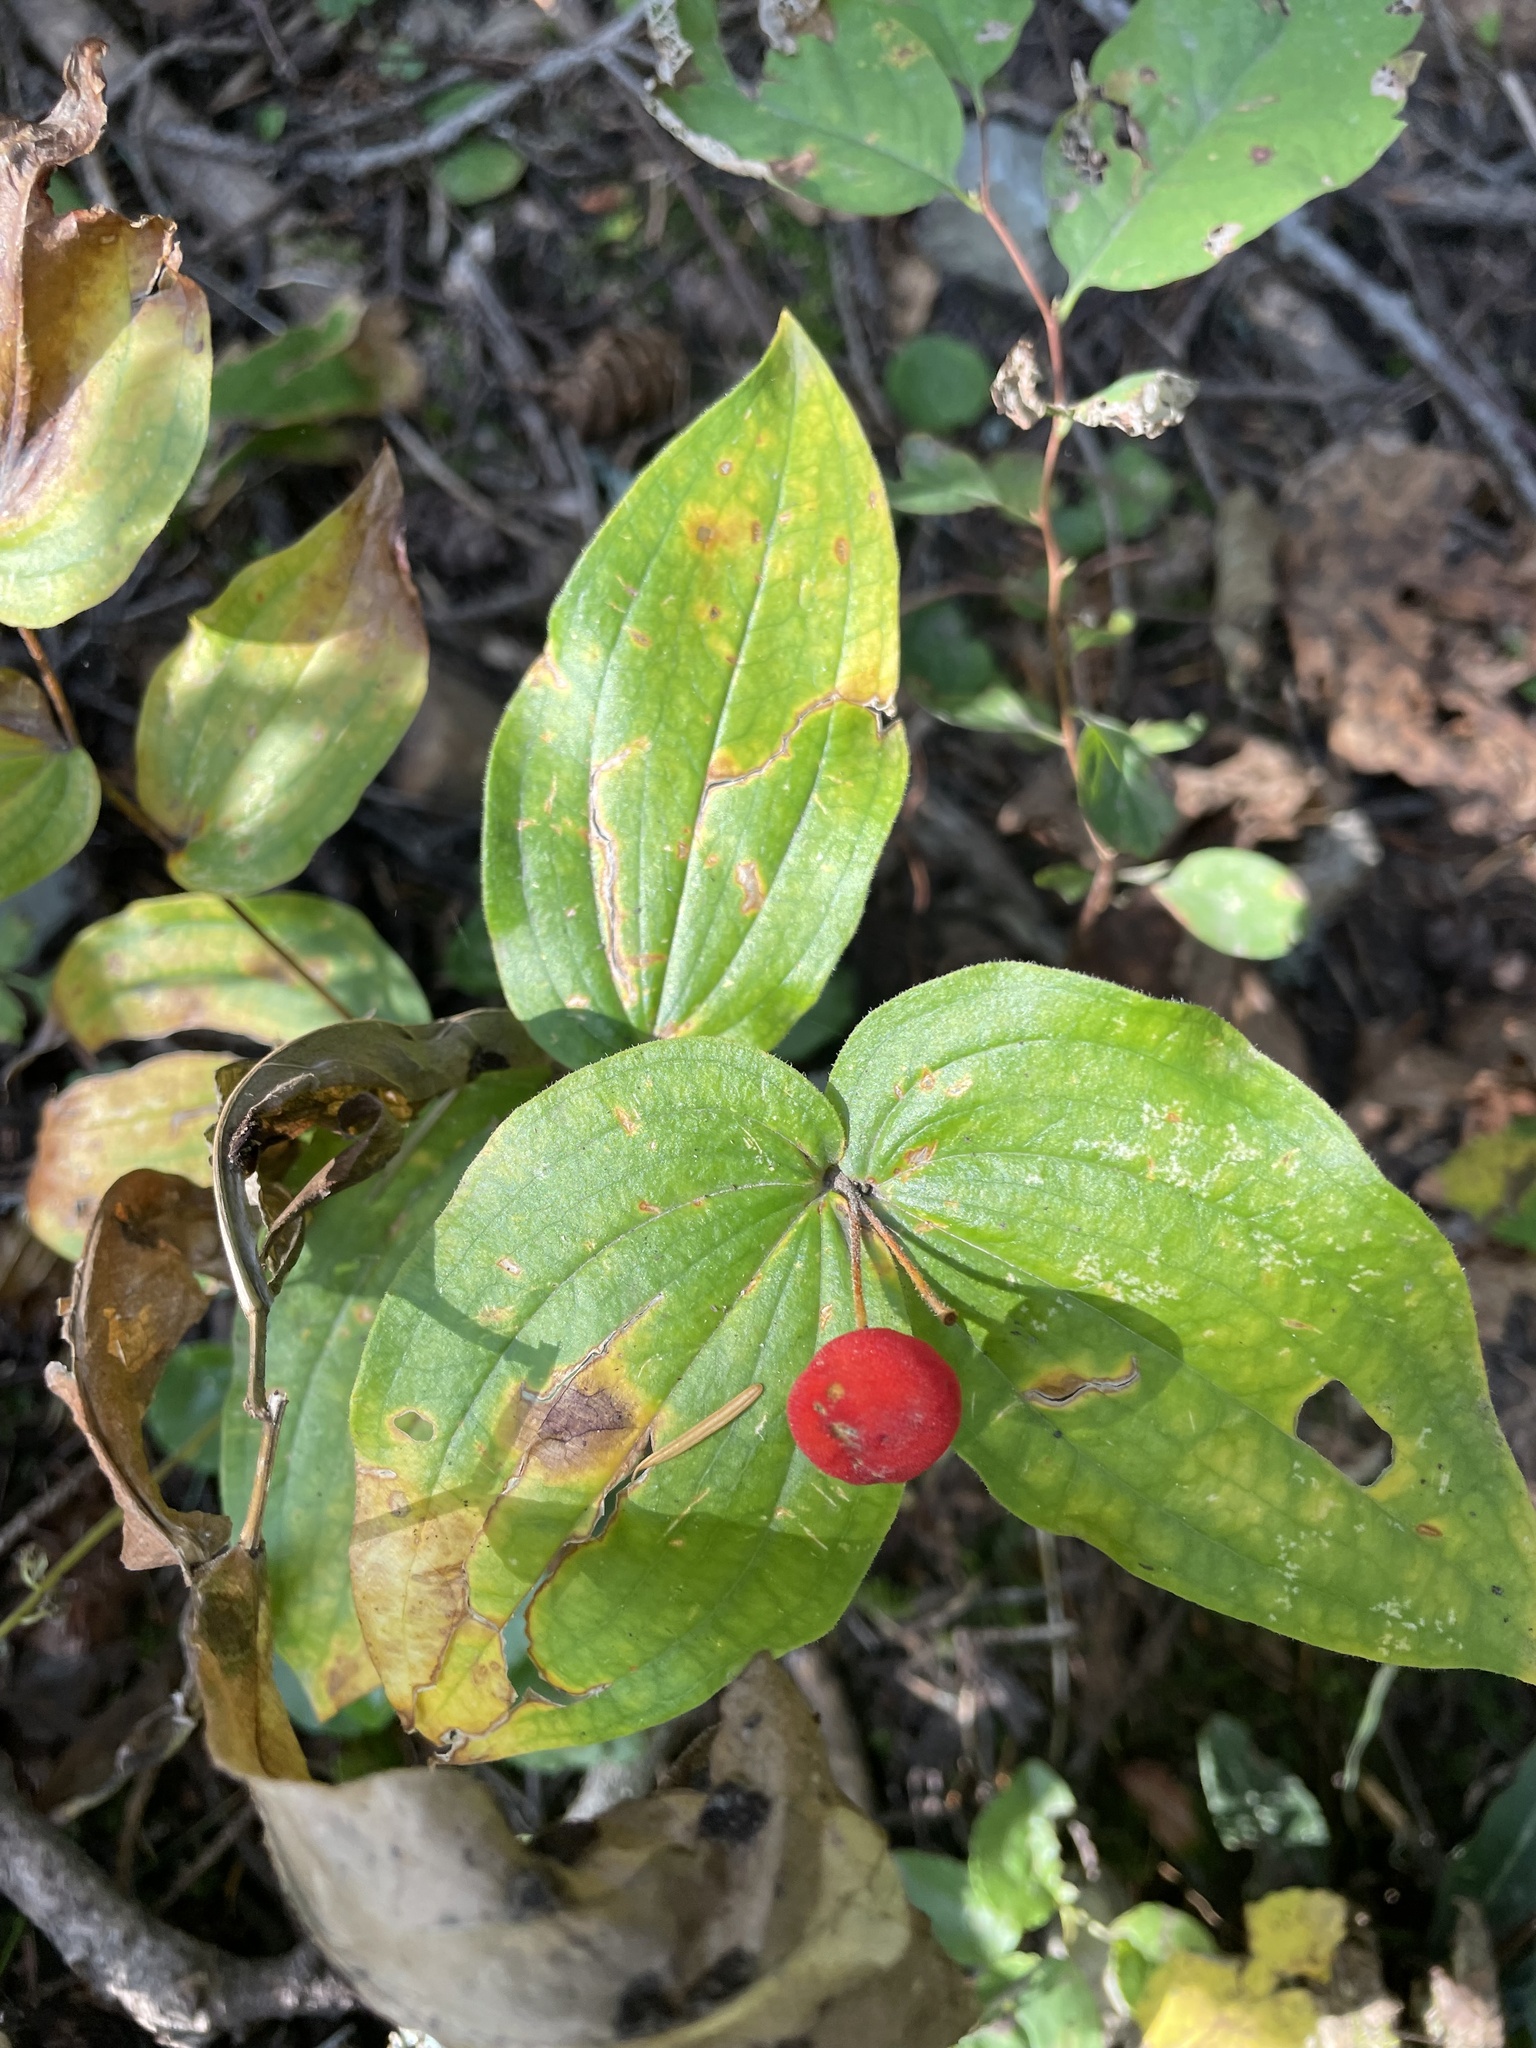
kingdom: Plantae
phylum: Tracheophyta
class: Liliopsida
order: Liliales
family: Liliaceae
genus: Prosartes
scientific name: Prosartes trachycarpa
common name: Rough-fruit fairy-bells
